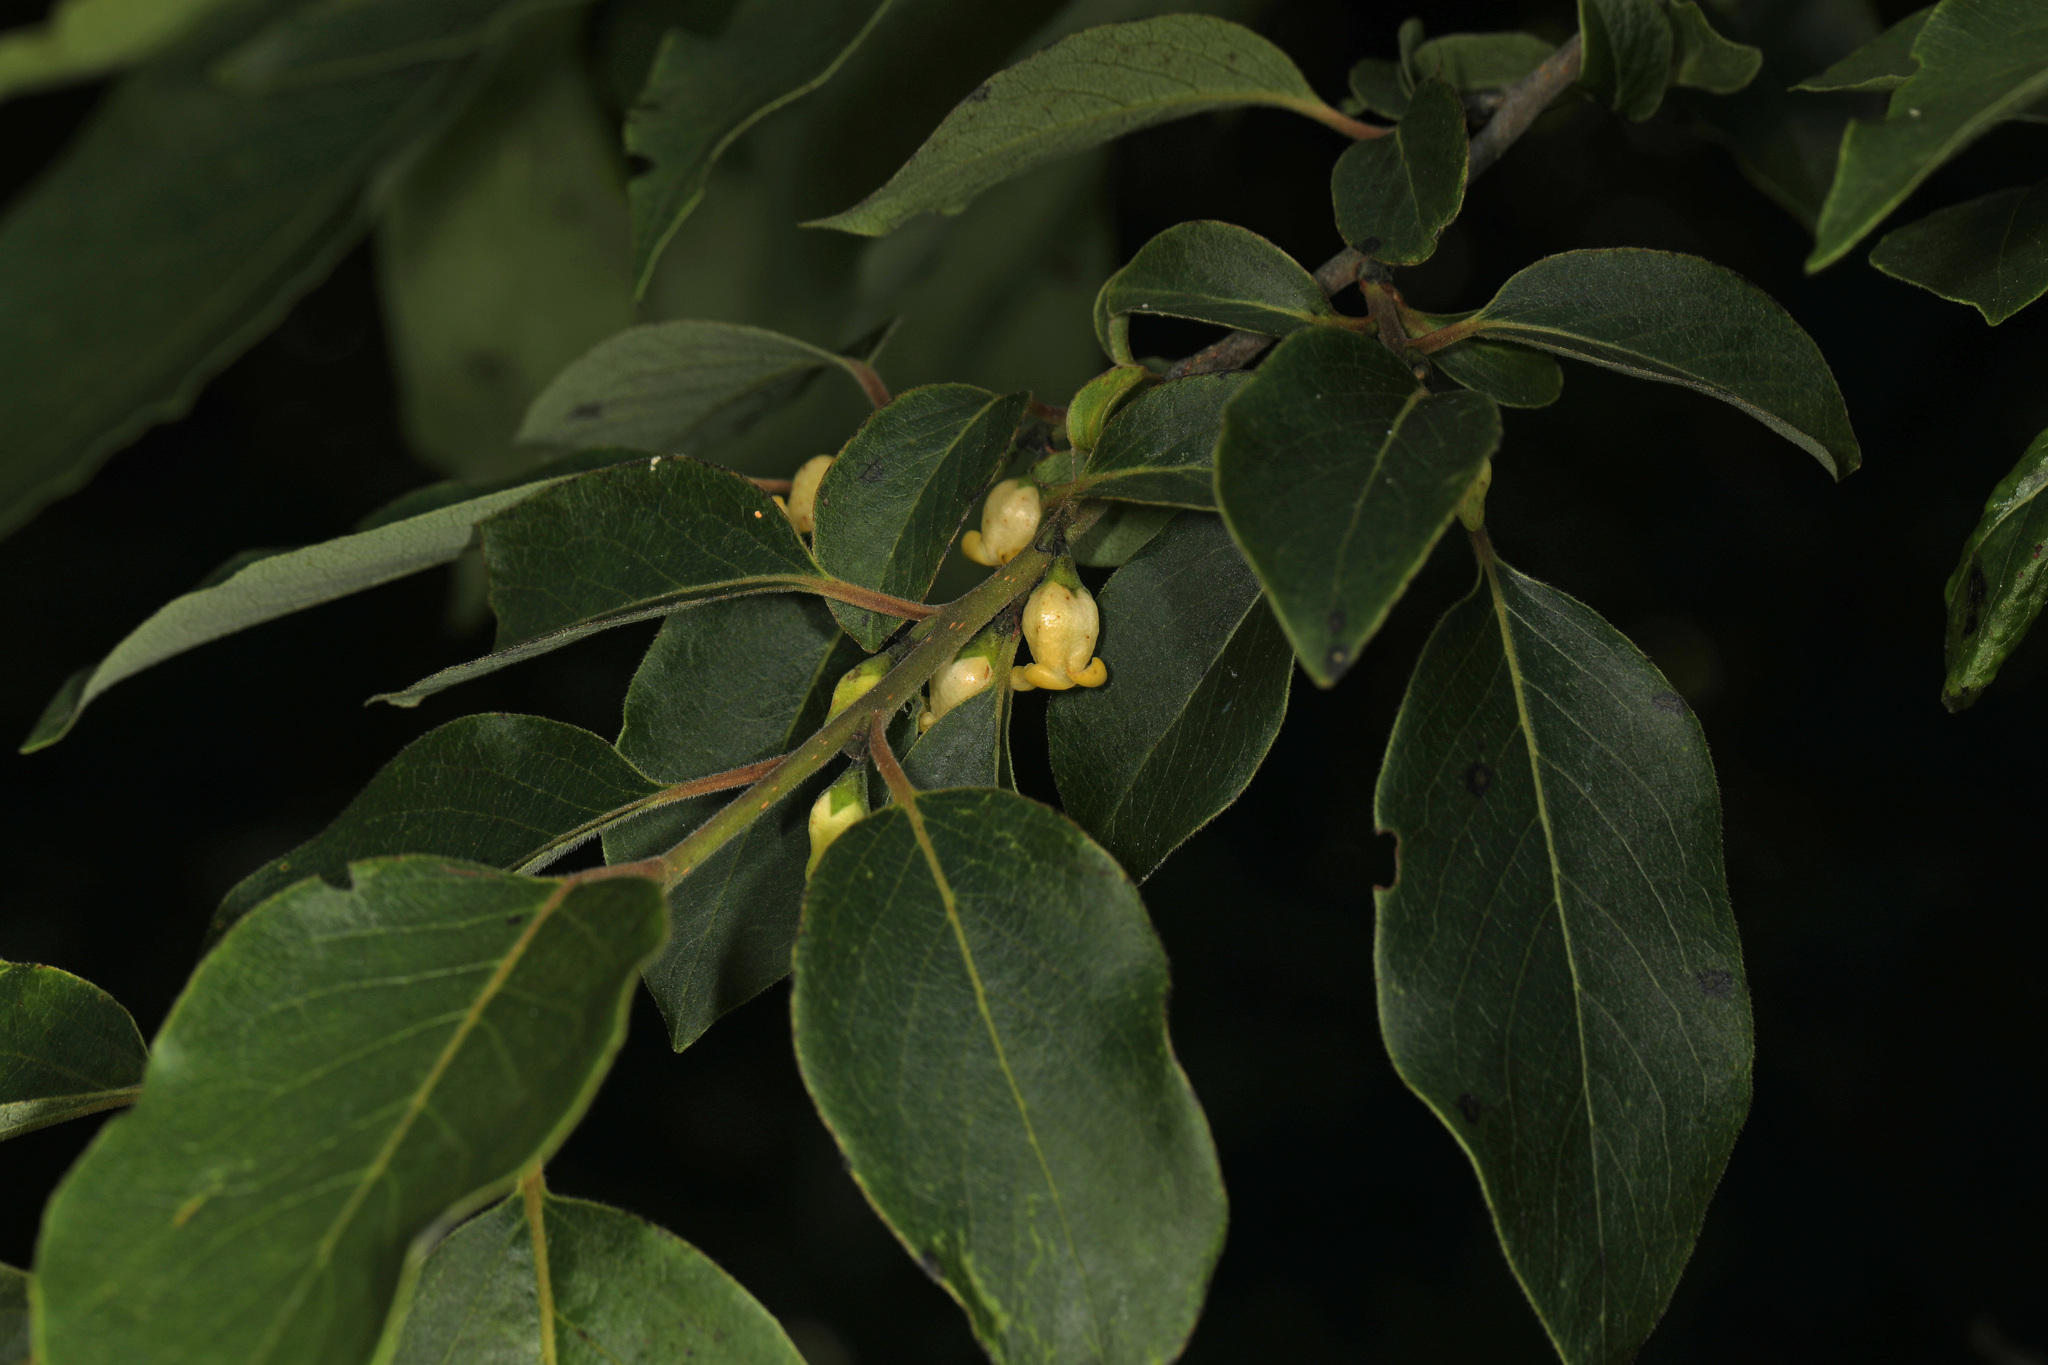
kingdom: Plantae
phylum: Tracheophyta
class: Magnoliopsida
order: Ericales
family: Ebenaceae
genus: Diospyros
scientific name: Diospyros virginiana
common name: Persimmon
